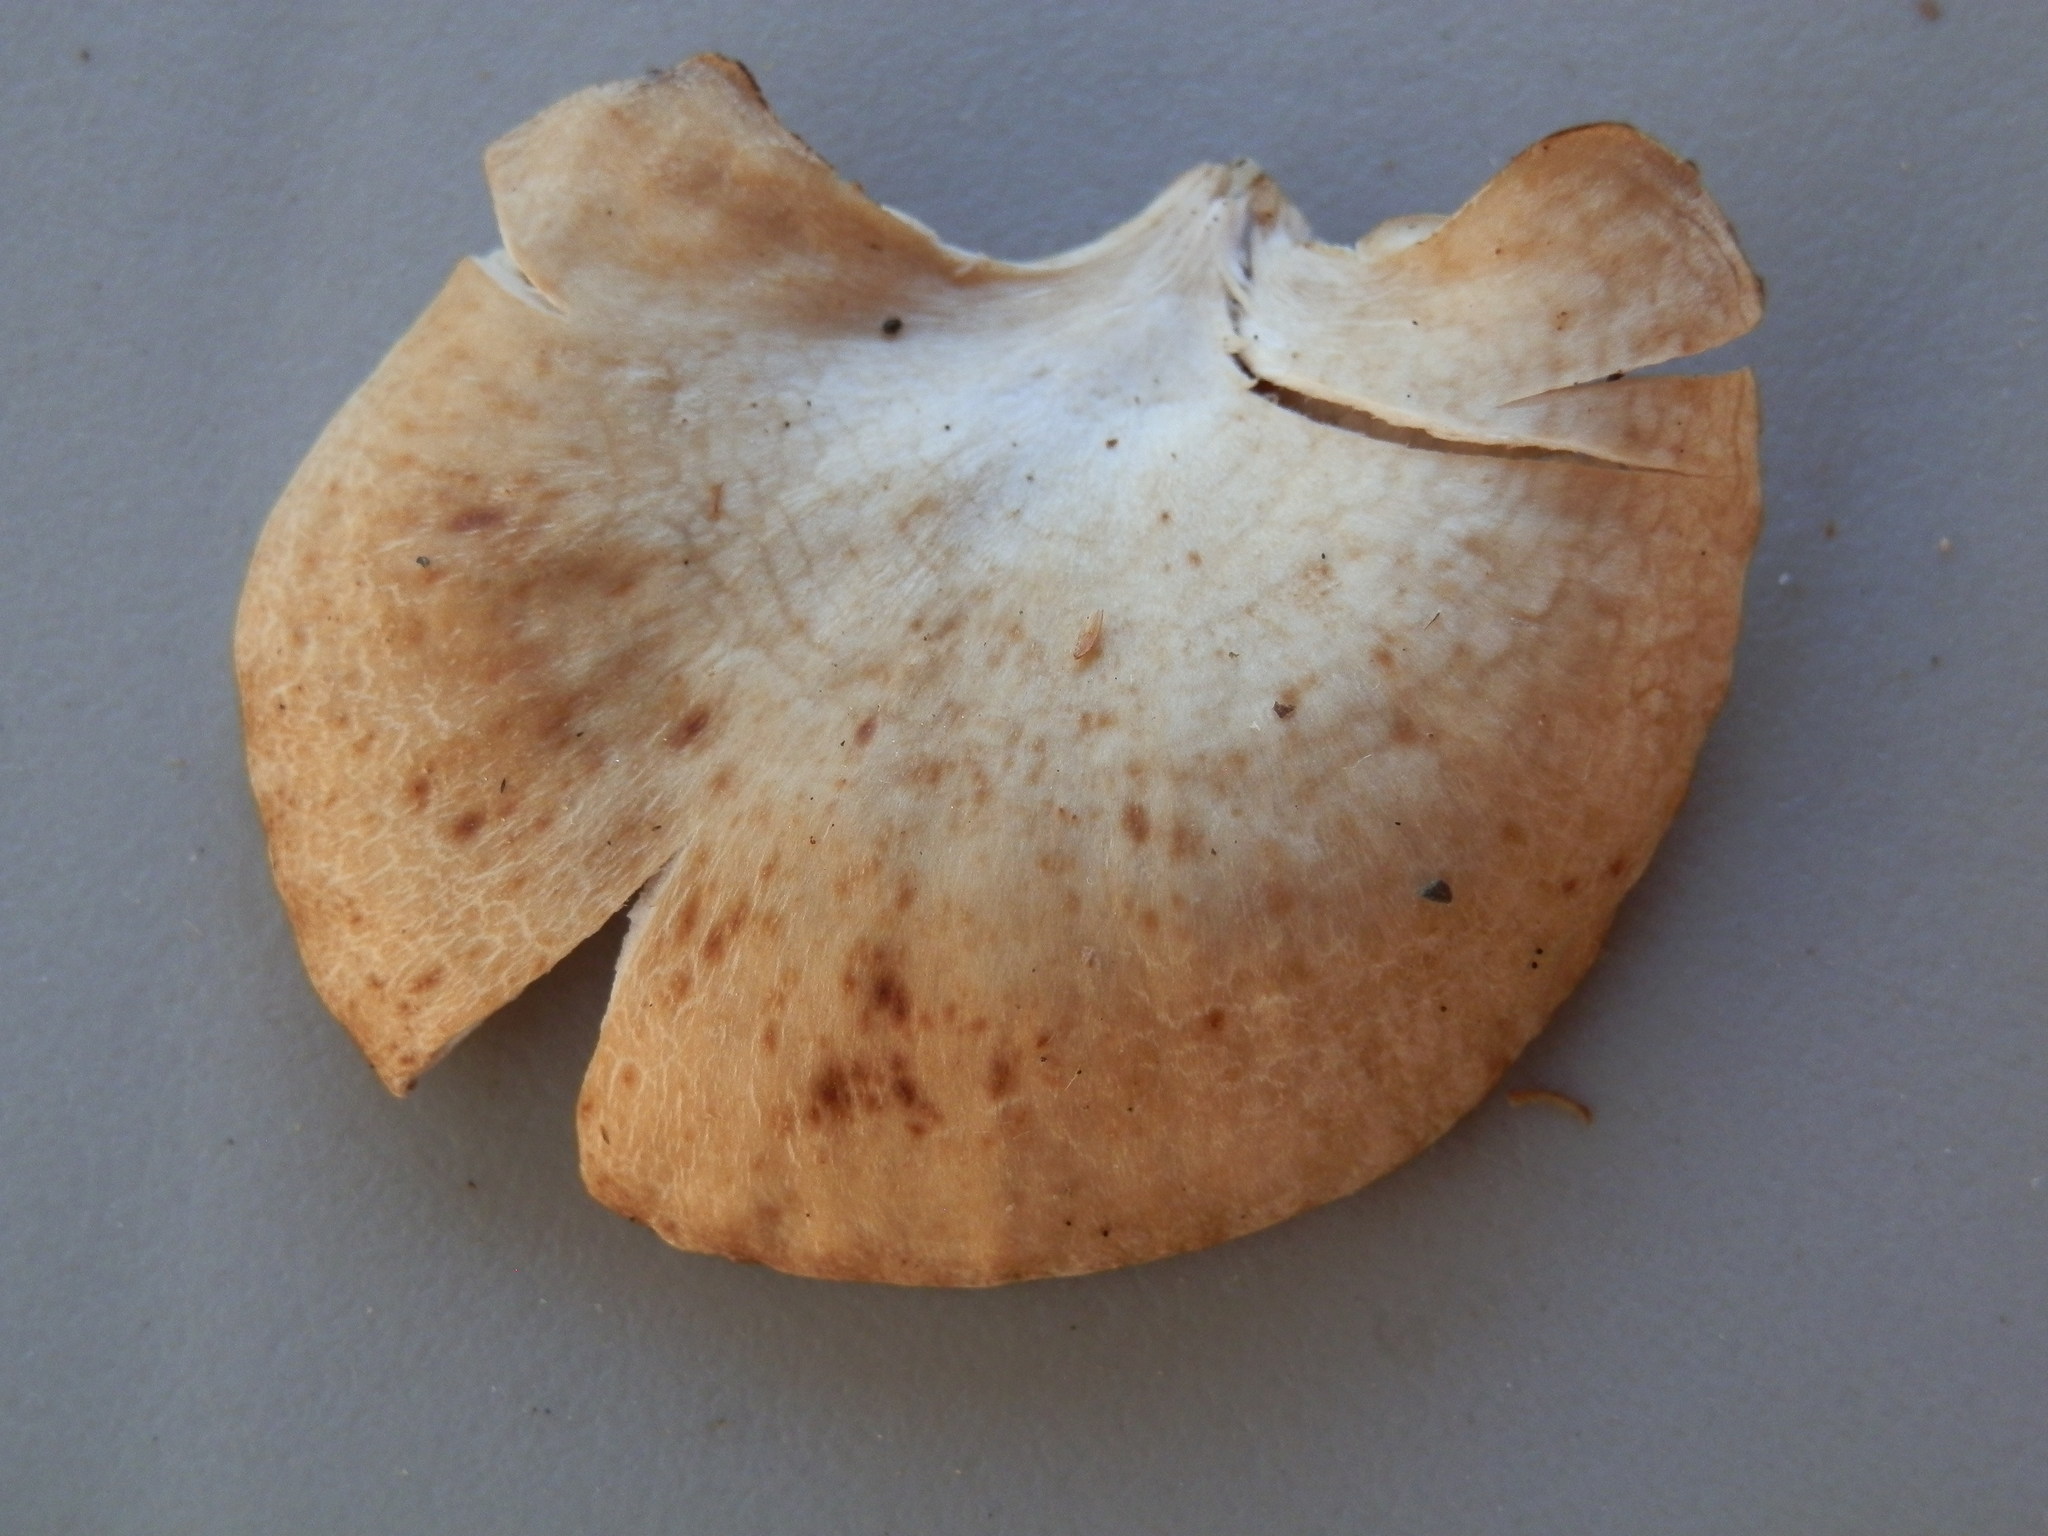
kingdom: Fungi
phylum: Basidiomycota
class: Agaricomycetes
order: Agaricales
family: Tricholomataceae
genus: Collybia
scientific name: Collybia
